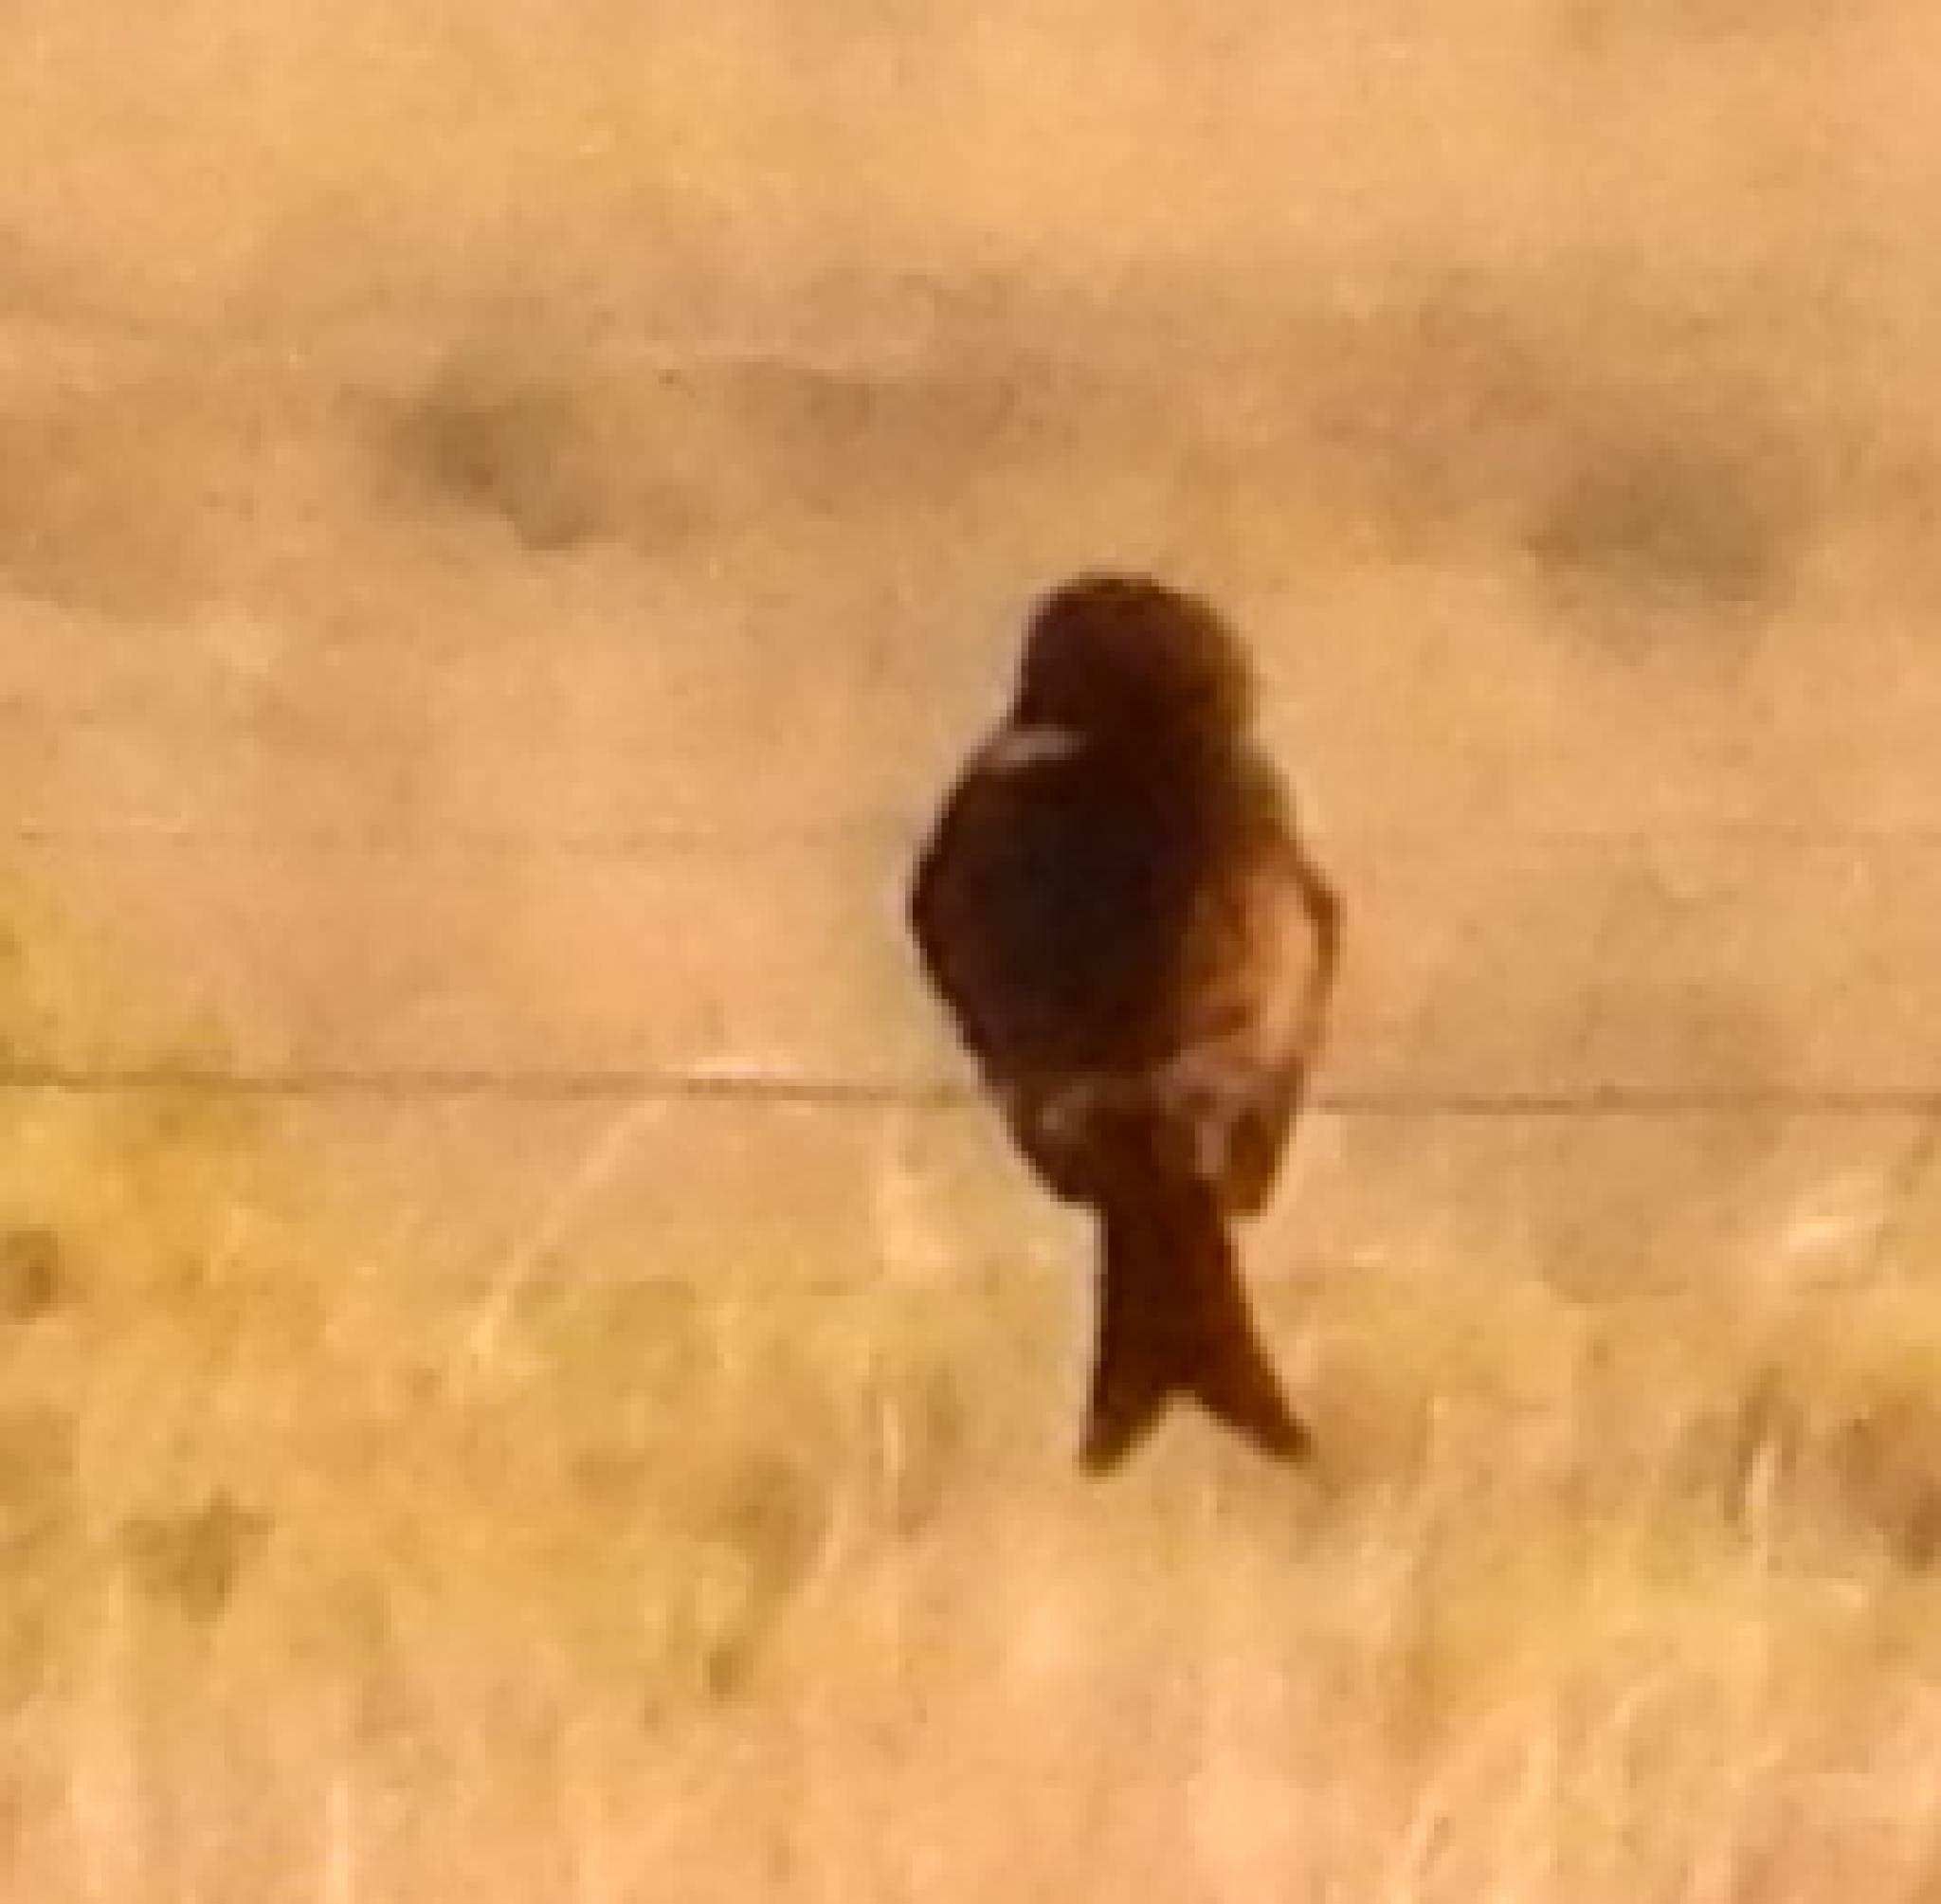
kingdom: Animalia
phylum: Chordata
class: Aves
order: Passeriformes
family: Dicruridae
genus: Dicrurus
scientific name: Dicrurus adsimilis
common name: Fork-tailed drongo
